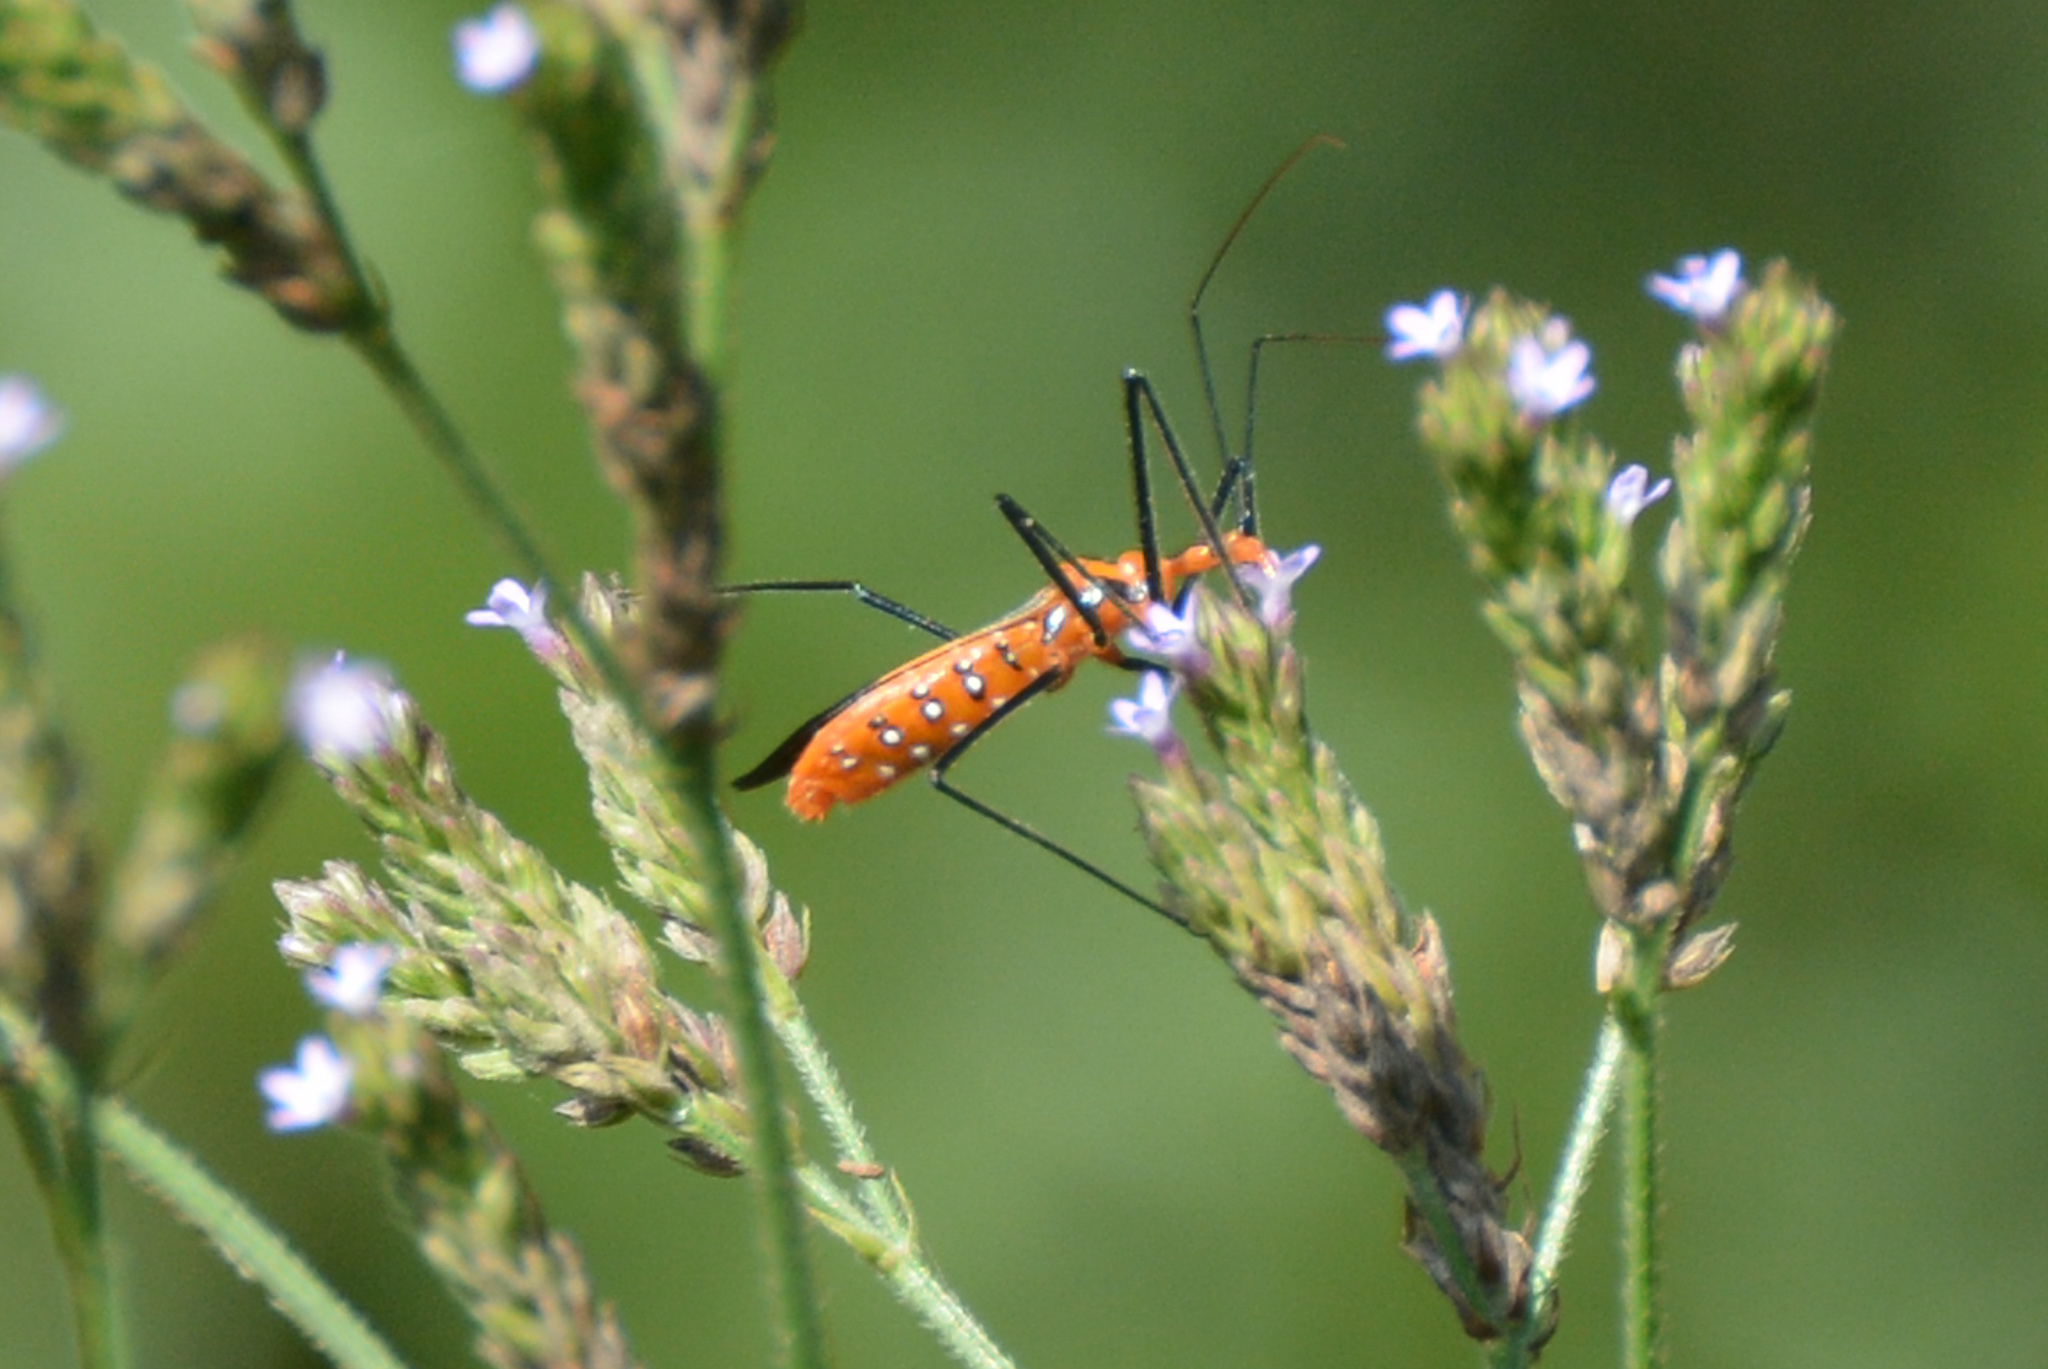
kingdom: Animalia
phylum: Arthropoda
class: Insecta
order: Hemiptera
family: Reduviidae
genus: Zelus
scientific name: Zelus longipes
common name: Milkweed assassin bug
